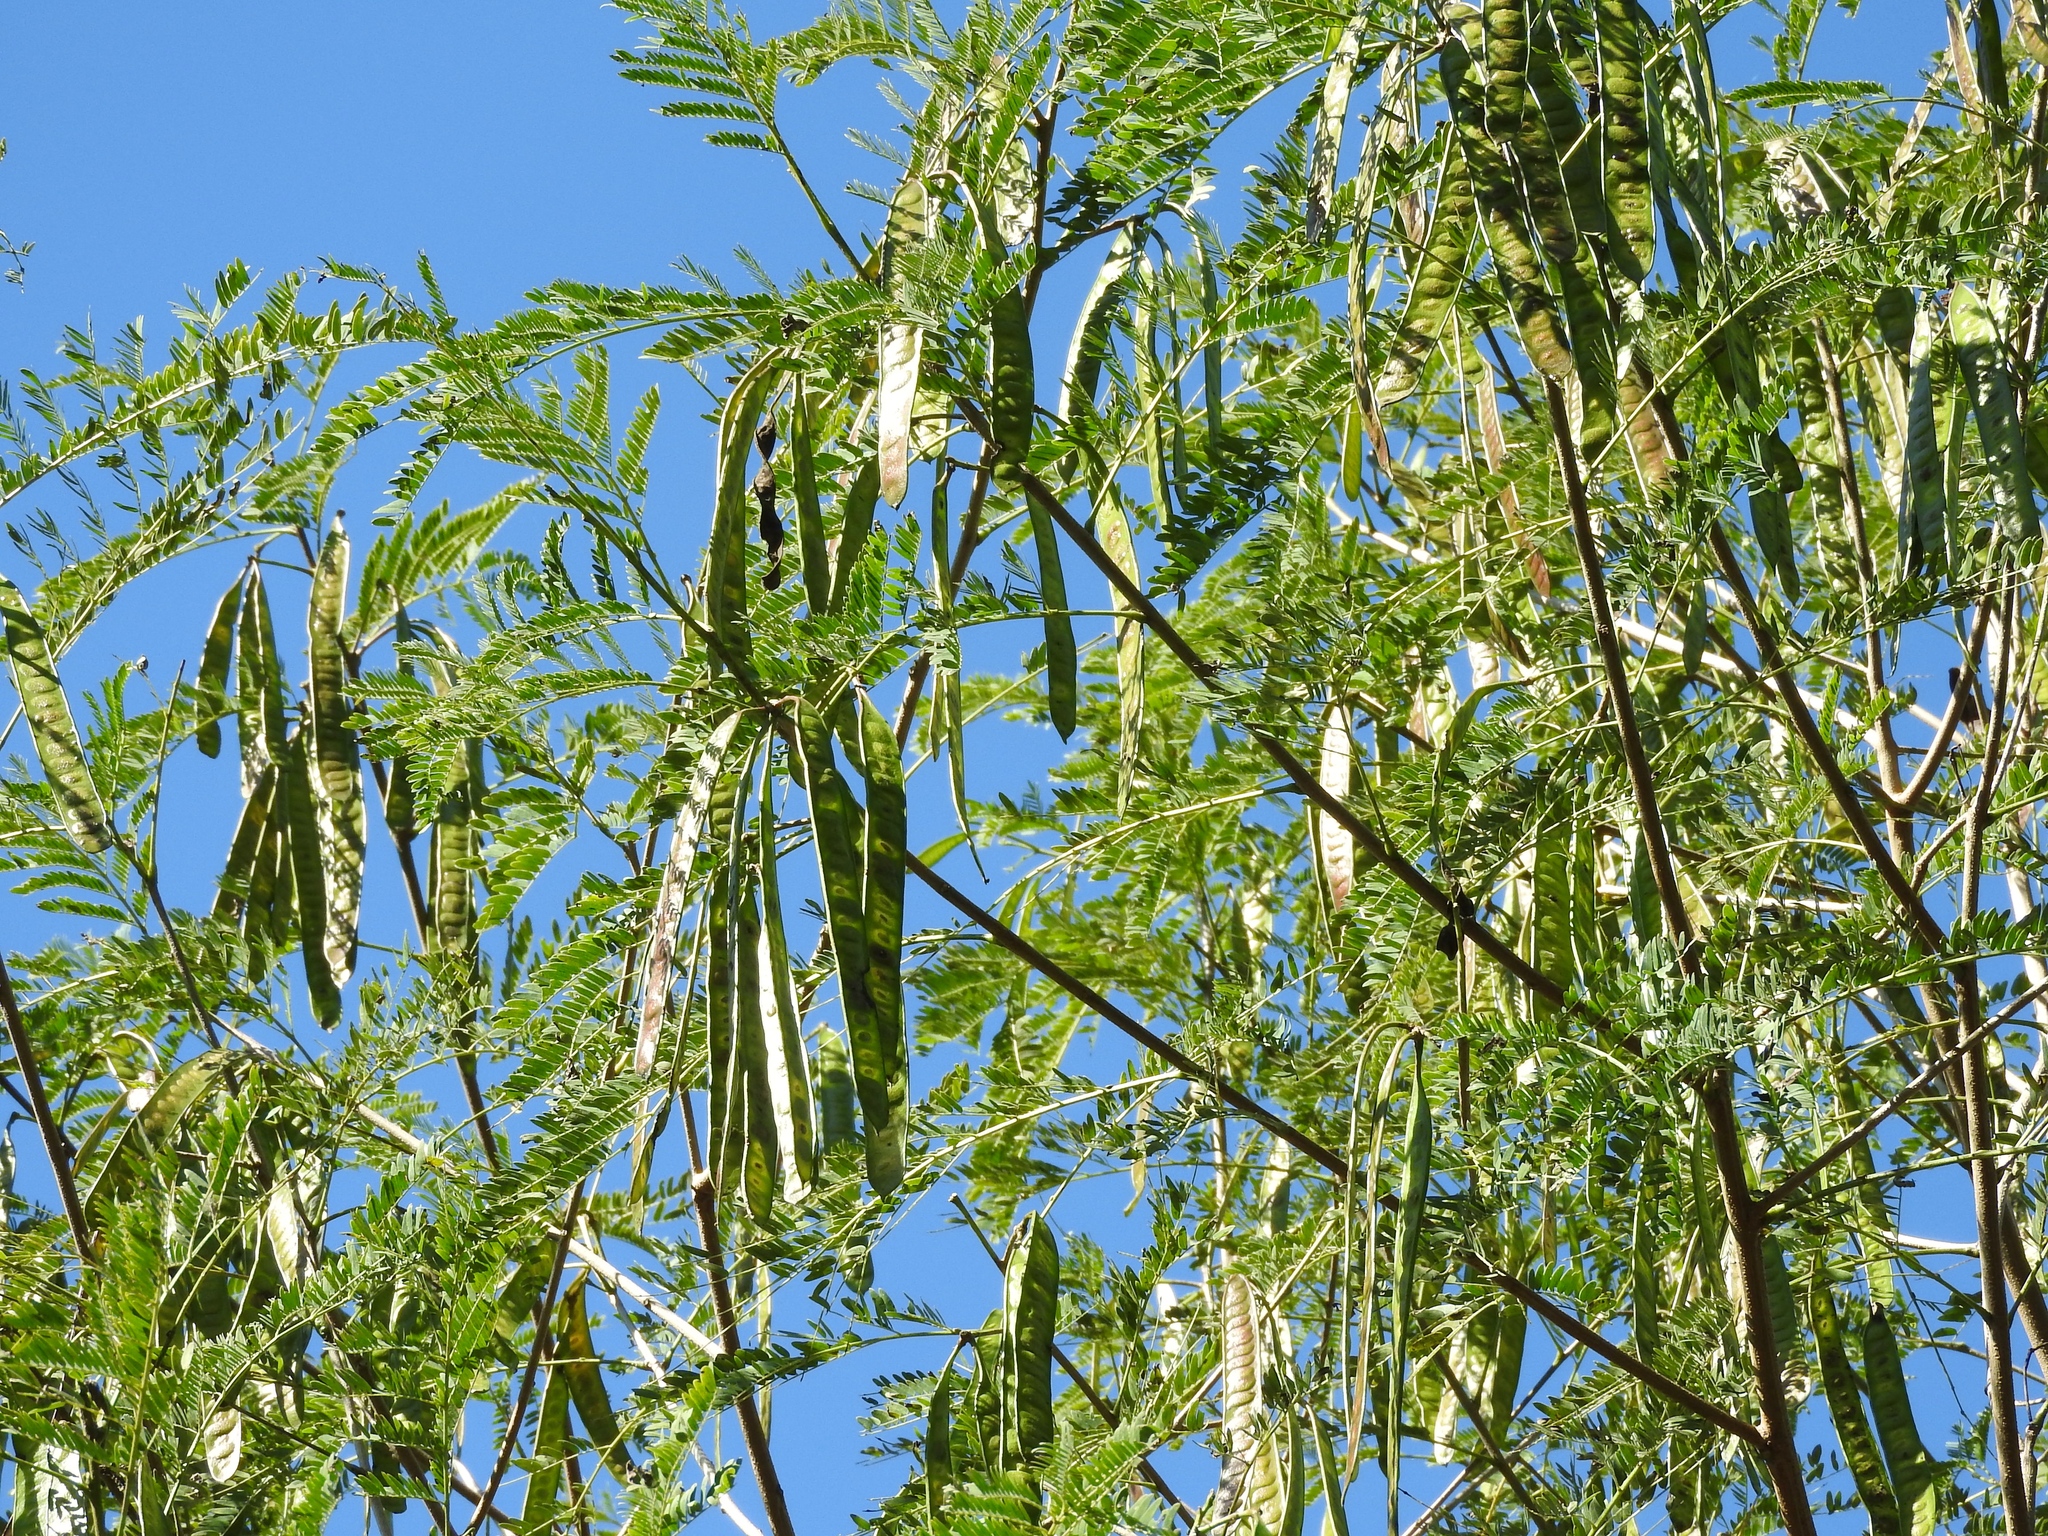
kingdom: Plantae
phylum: Tracheophyta
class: Magnoliopsida
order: Fabales
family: Fabaceae
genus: Leucaena
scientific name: Leucaena leucocephala
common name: White leadtree
